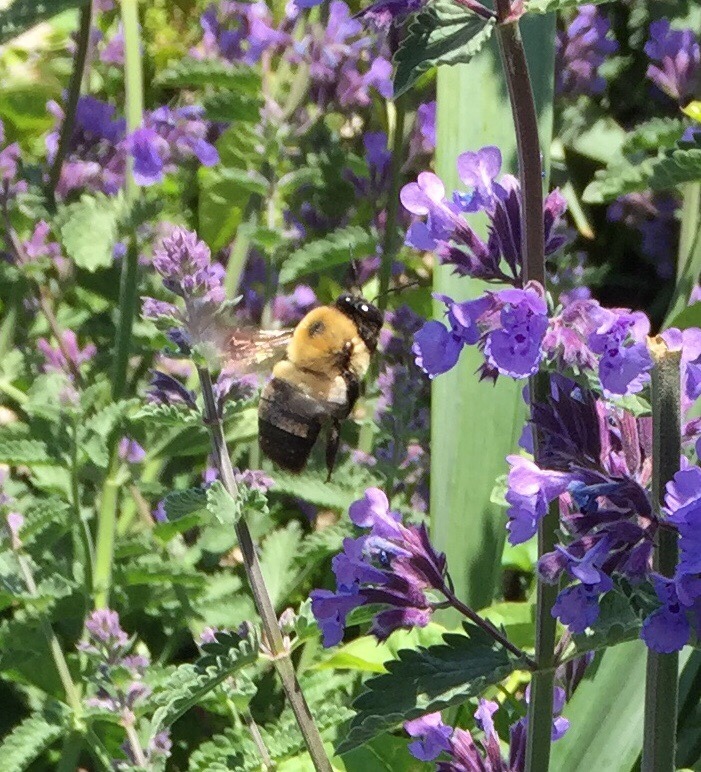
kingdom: Animalia
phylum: Arthropoda
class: Insecta
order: Hymenoptera
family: Apidae
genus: Xylocopa
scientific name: Xylocopa virginica
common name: Carpenter bee
